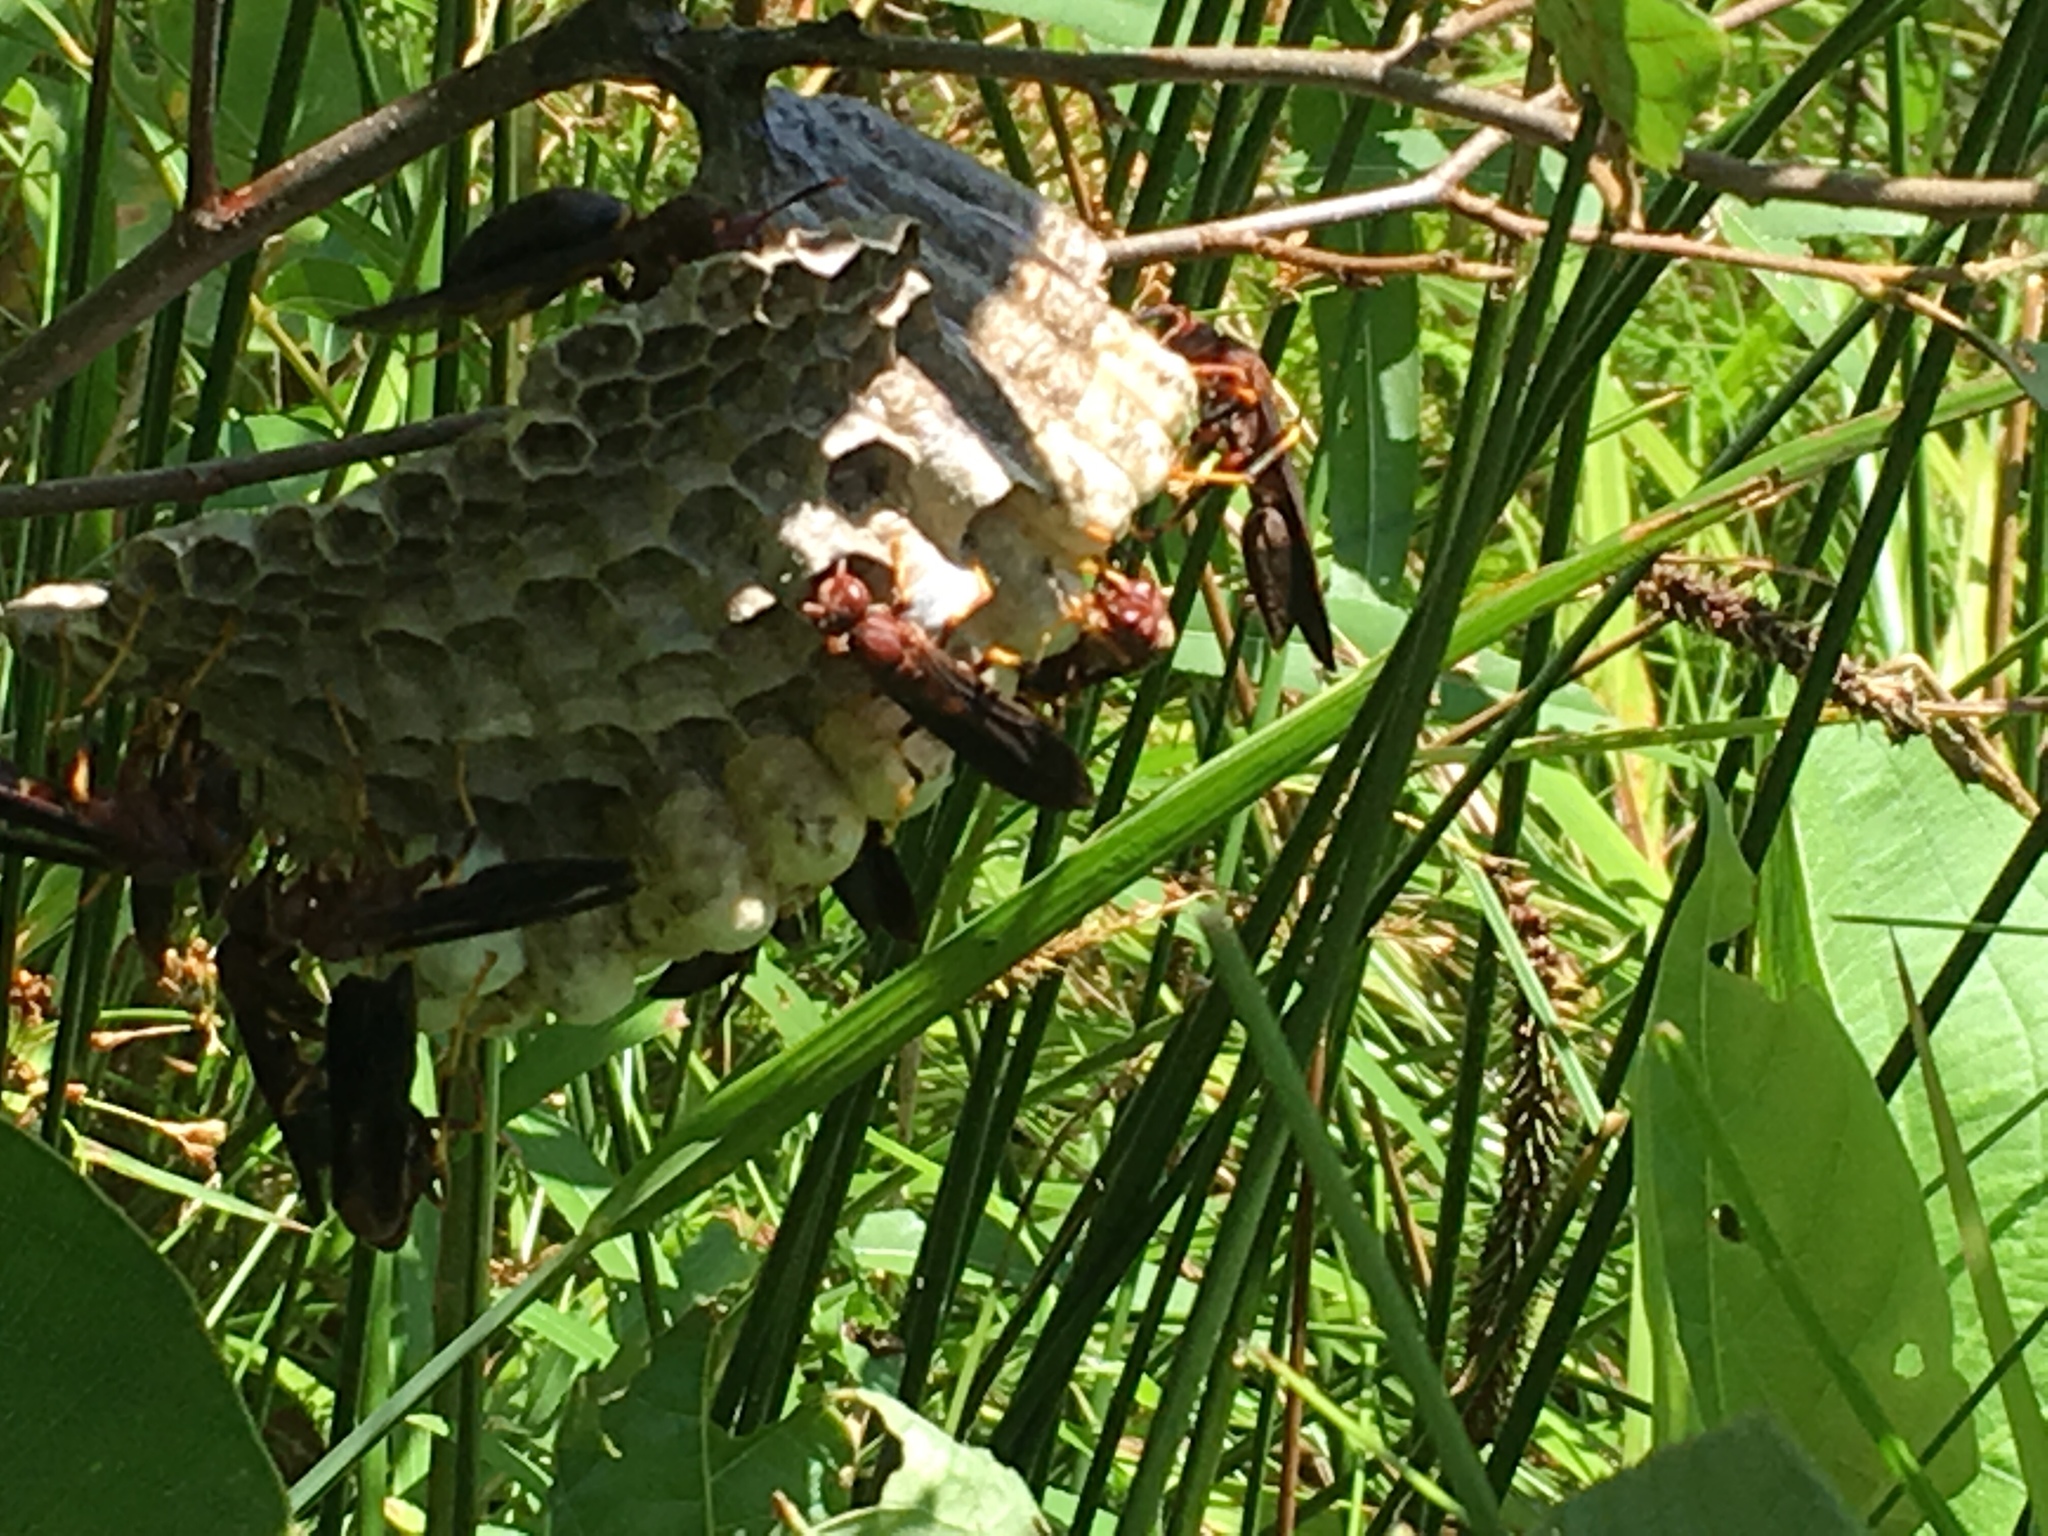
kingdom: Animalia
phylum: Arthropoda
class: Insecta
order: Hymenoptera
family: Eumenidae
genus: Polistes
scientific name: Polistes annularis
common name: Ringed paper wasp
